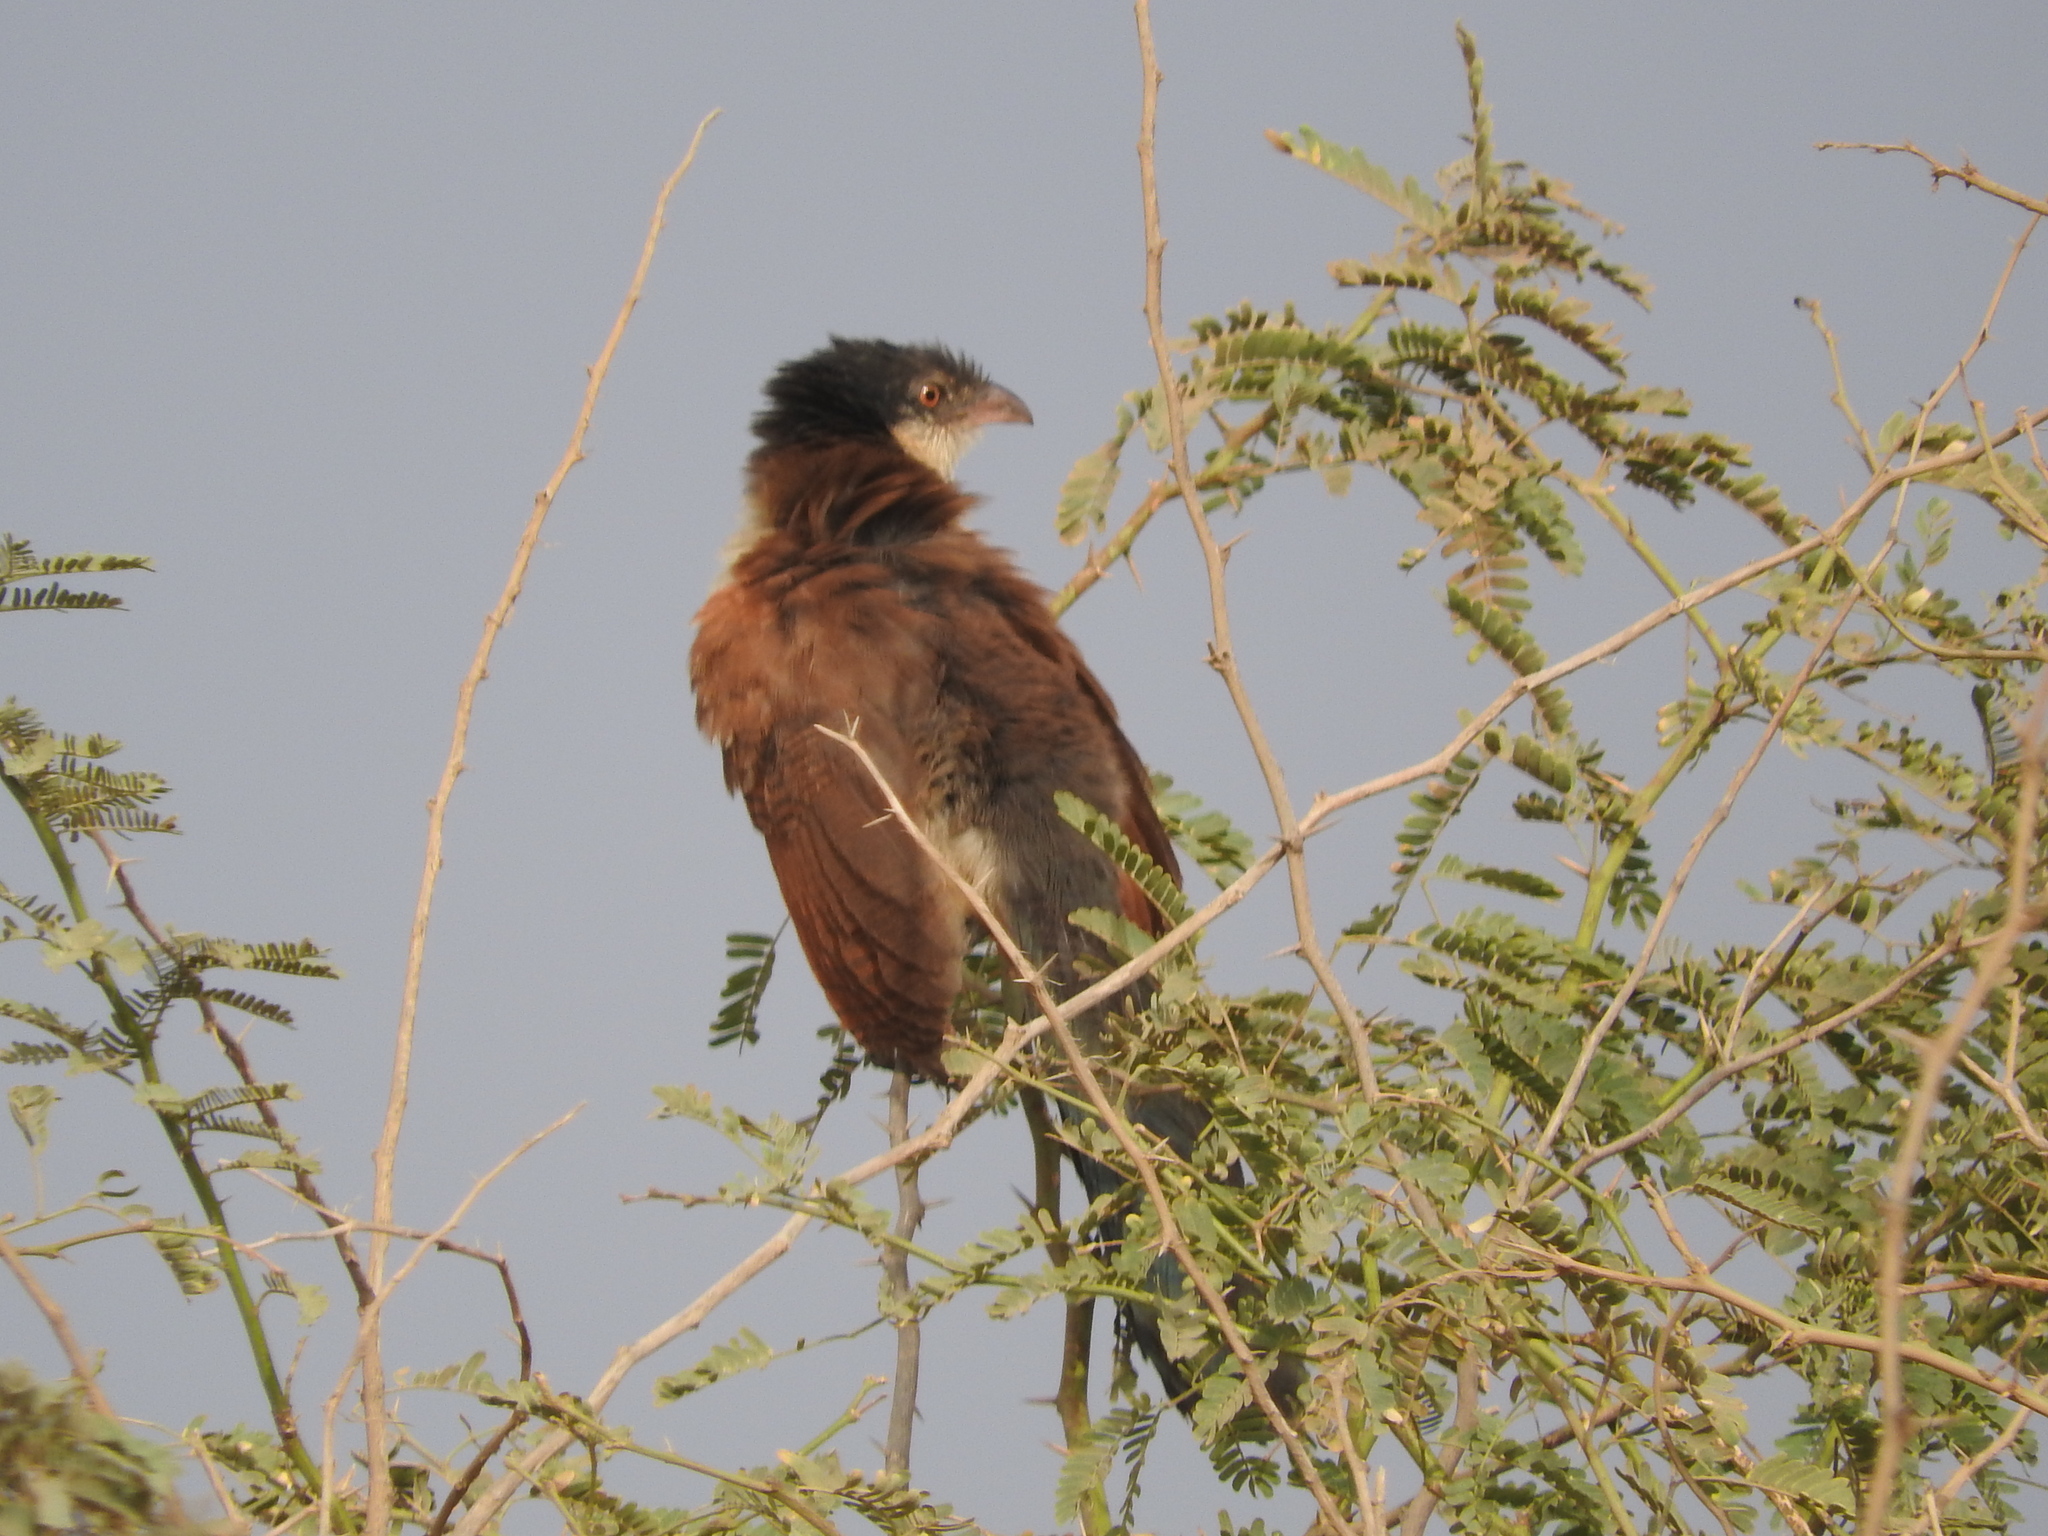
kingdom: Animalia
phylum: Chordata
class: Aves
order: Cuculiformes
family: Cuculidae
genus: Centropus
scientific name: Centropus senegalensis
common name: Senegal coucal
